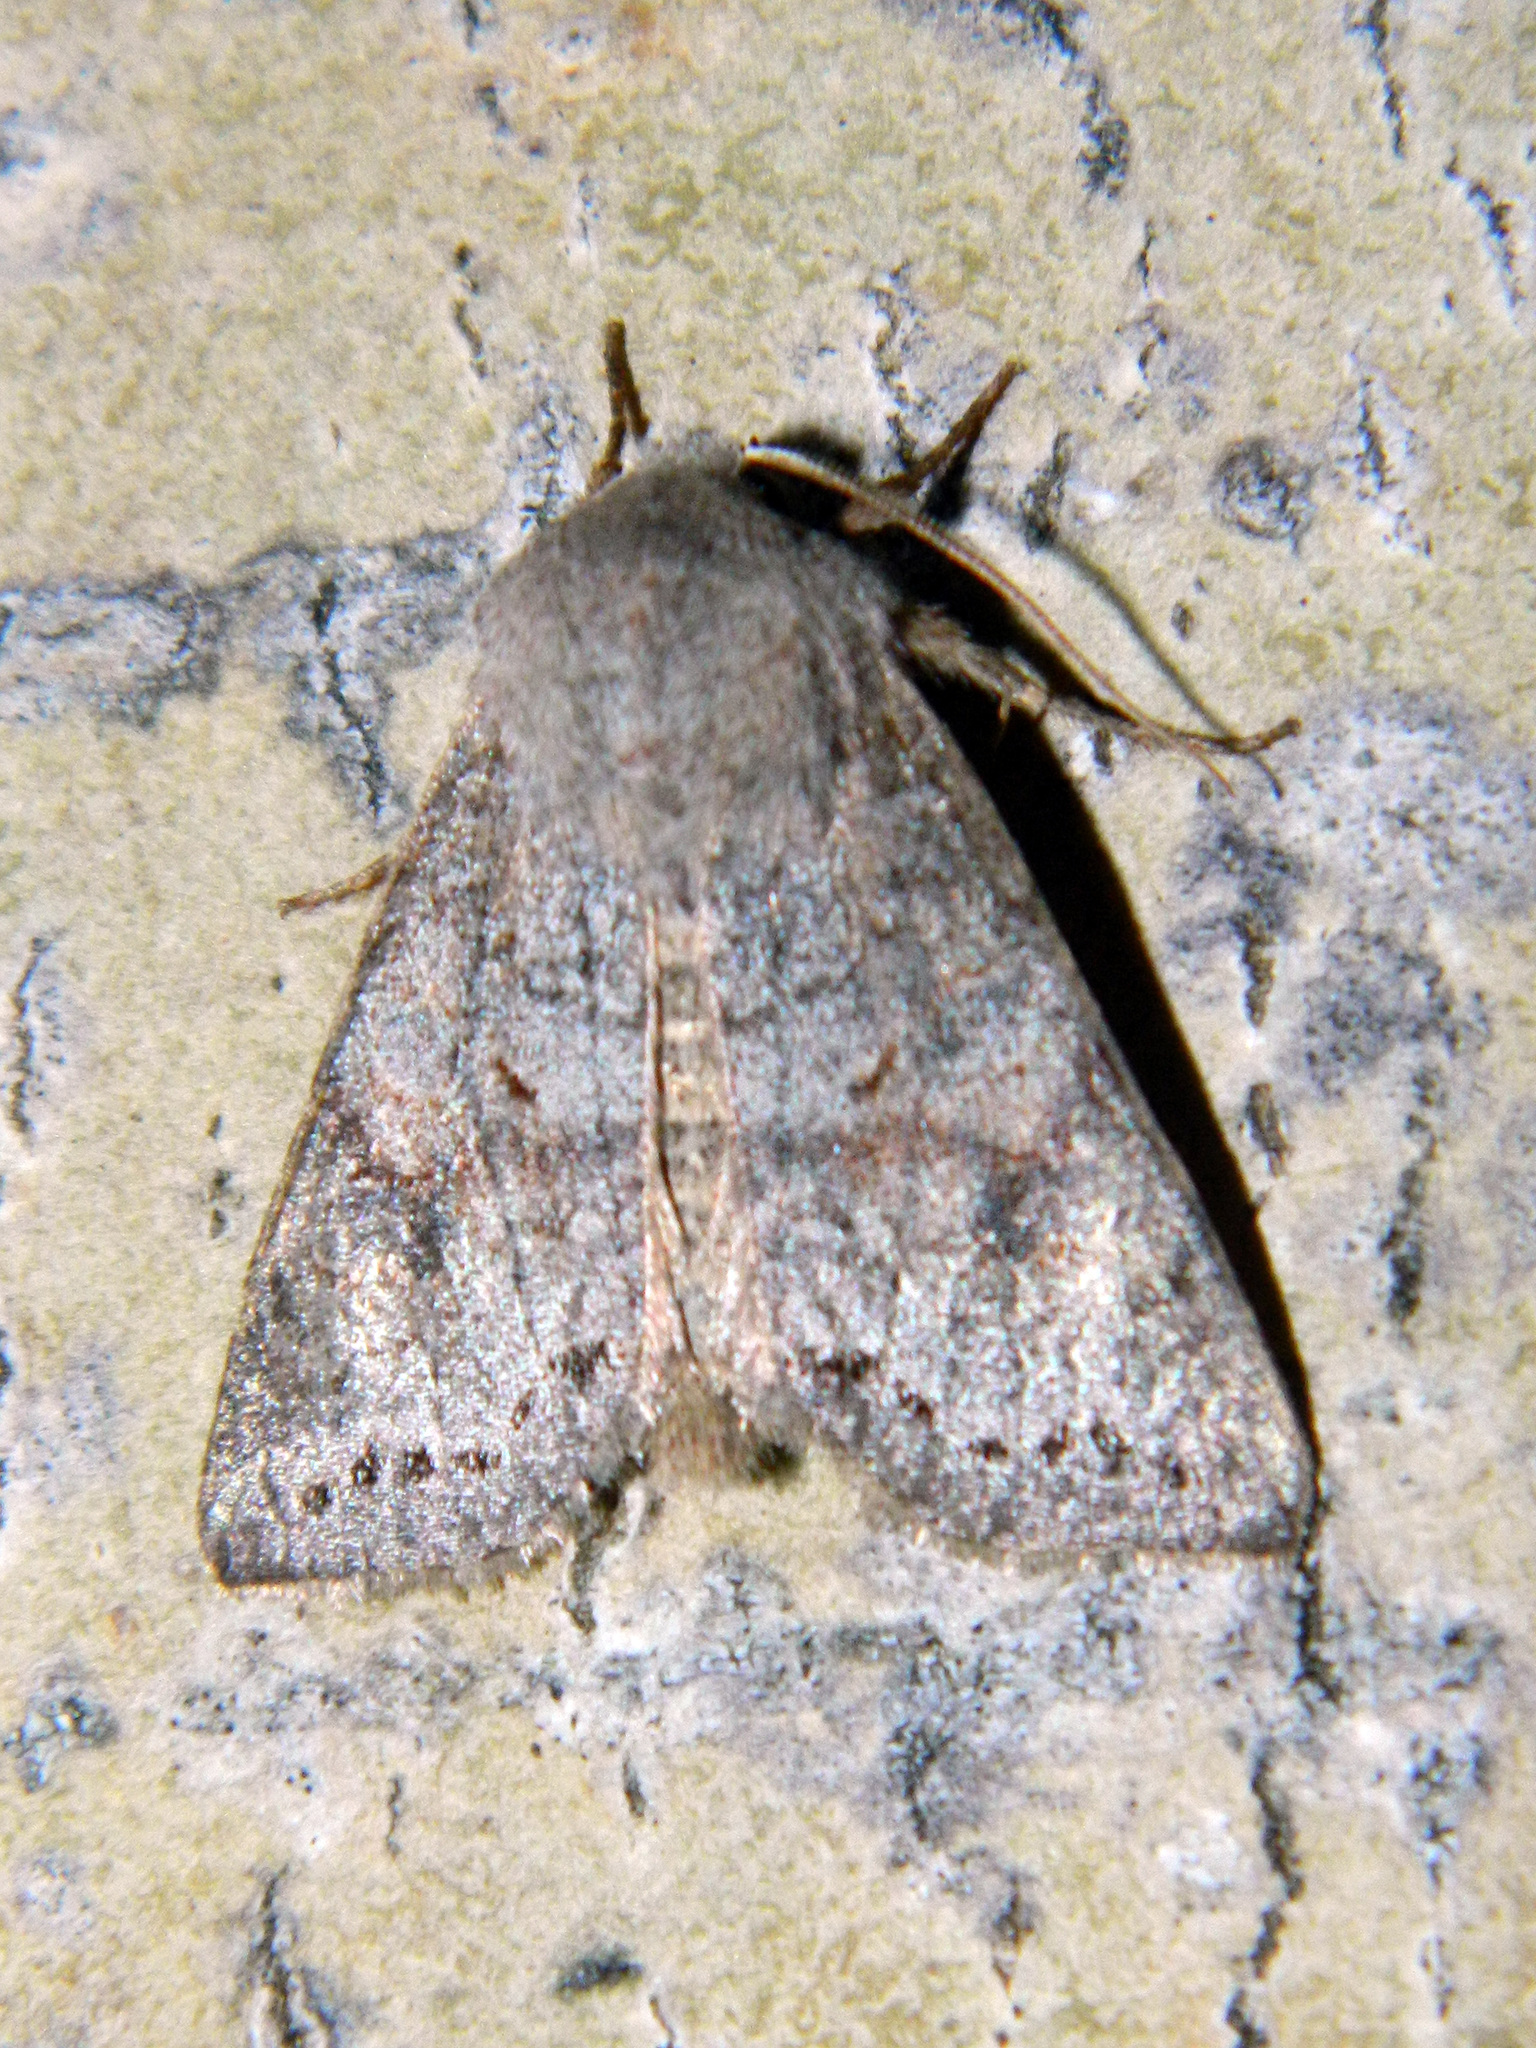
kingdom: Animalia
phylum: Arthropoda
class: Insecta
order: Lepidoptera
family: Noctuidae
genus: Orthosia
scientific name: Orthosia revicta
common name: Rusty whitesided caterpillar
